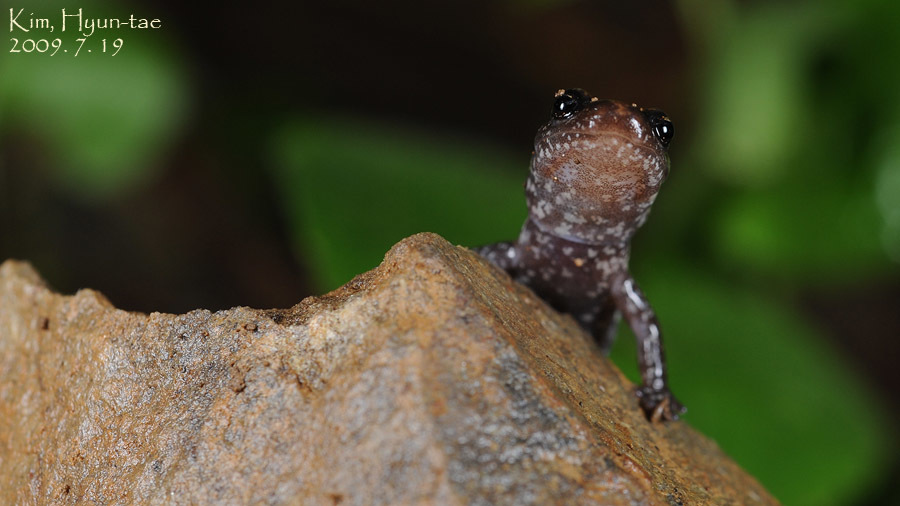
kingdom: Animalia
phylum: Chordata
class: Amphibia
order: Caudata
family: Plethodontidae
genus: Karsenia
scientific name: Karsenia koreana
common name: Korean crevice salamander
